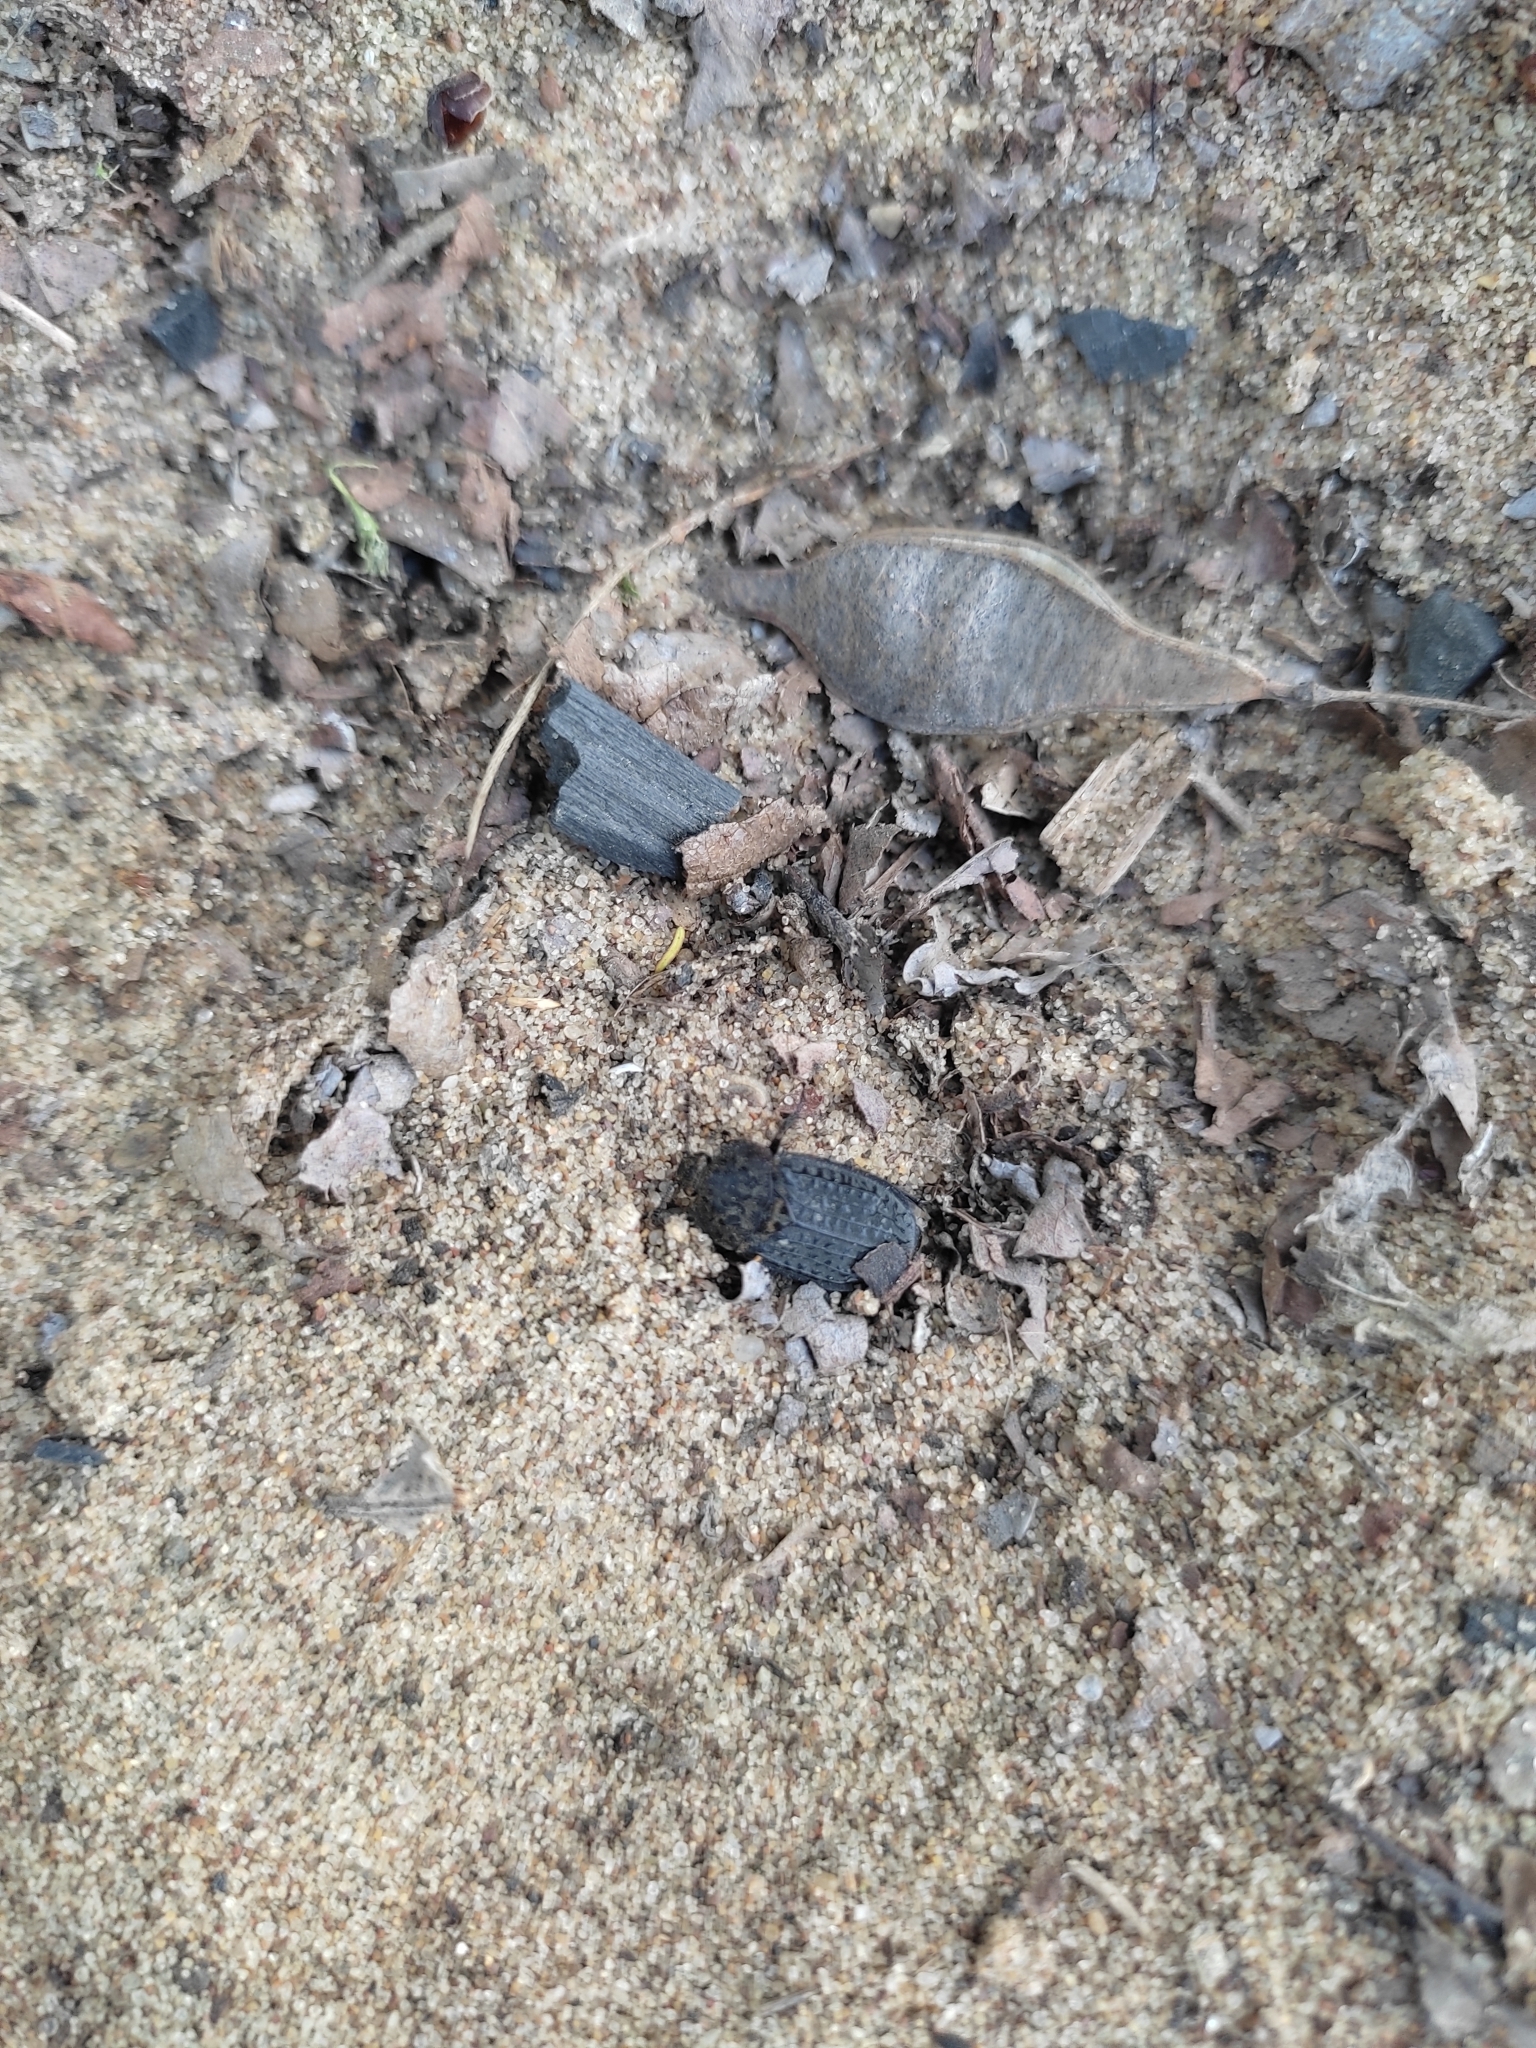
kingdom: Animalia
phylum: Arthropoda
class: Insecta
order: Coleoptera
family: Staphylinidae
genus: Thanatophilus
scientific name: Thanatophilus rugosus
